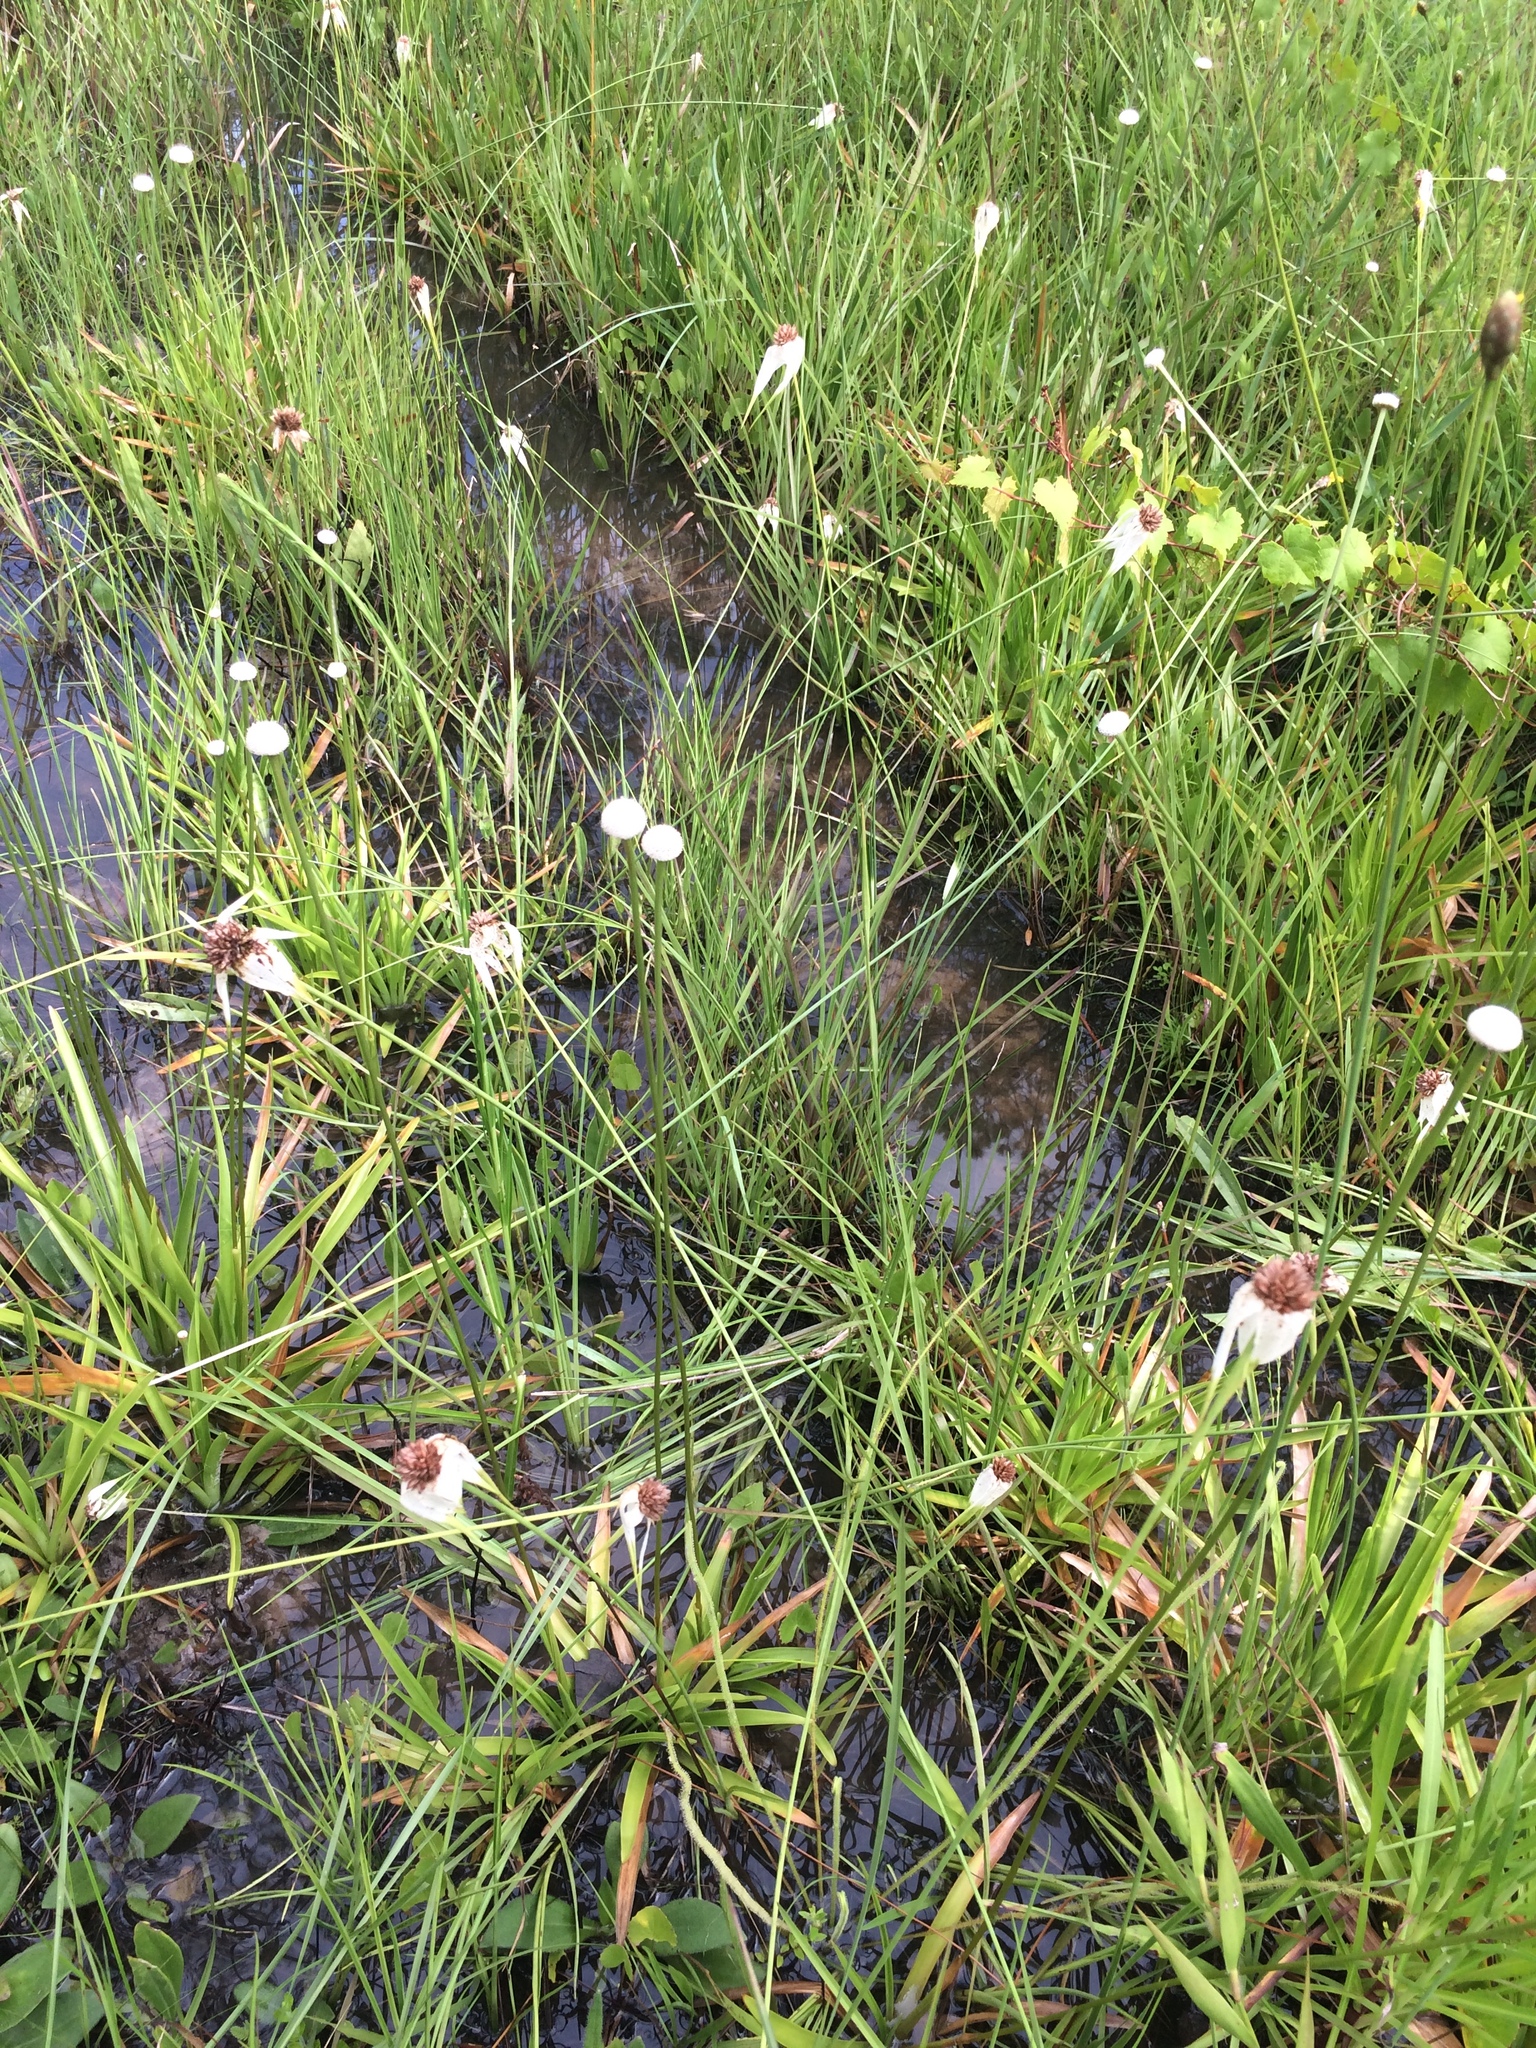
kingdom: Plantae
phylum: Tracheophyta
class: Liliopsida
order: Poales
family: Cyperaceae
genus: Rhynchospora
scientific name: Rhynchospora latifolia
